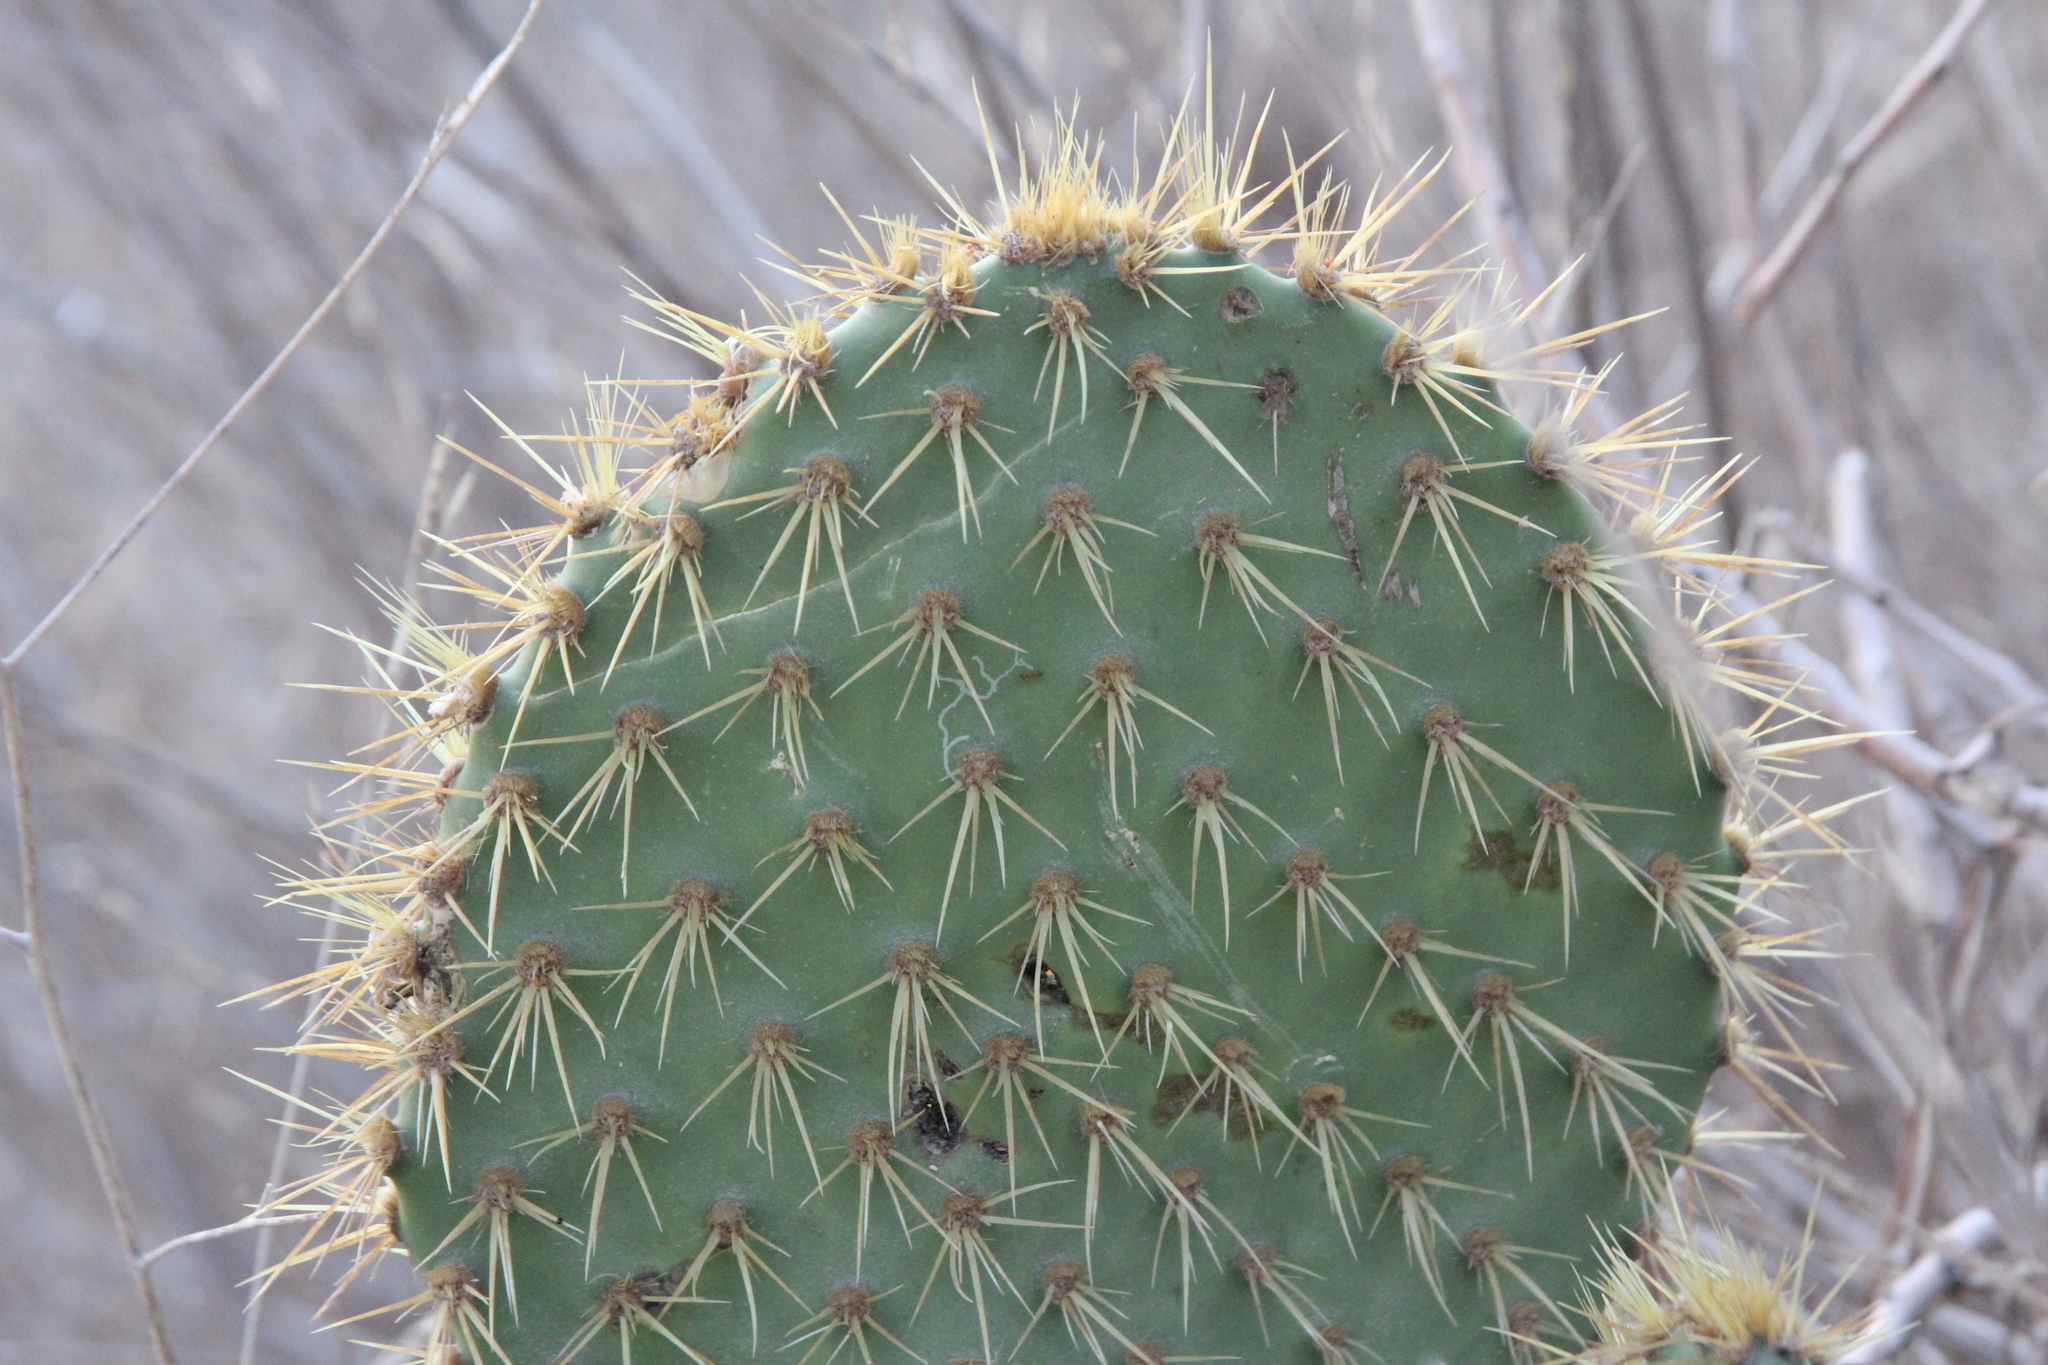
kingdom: Plantae
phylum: Tracheophyta
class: Magnoliopsida
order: Caryophyllales
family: Cactaceae
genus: Opuntia
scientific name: Opuntia oricola
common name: Chaparral prickly-pear
